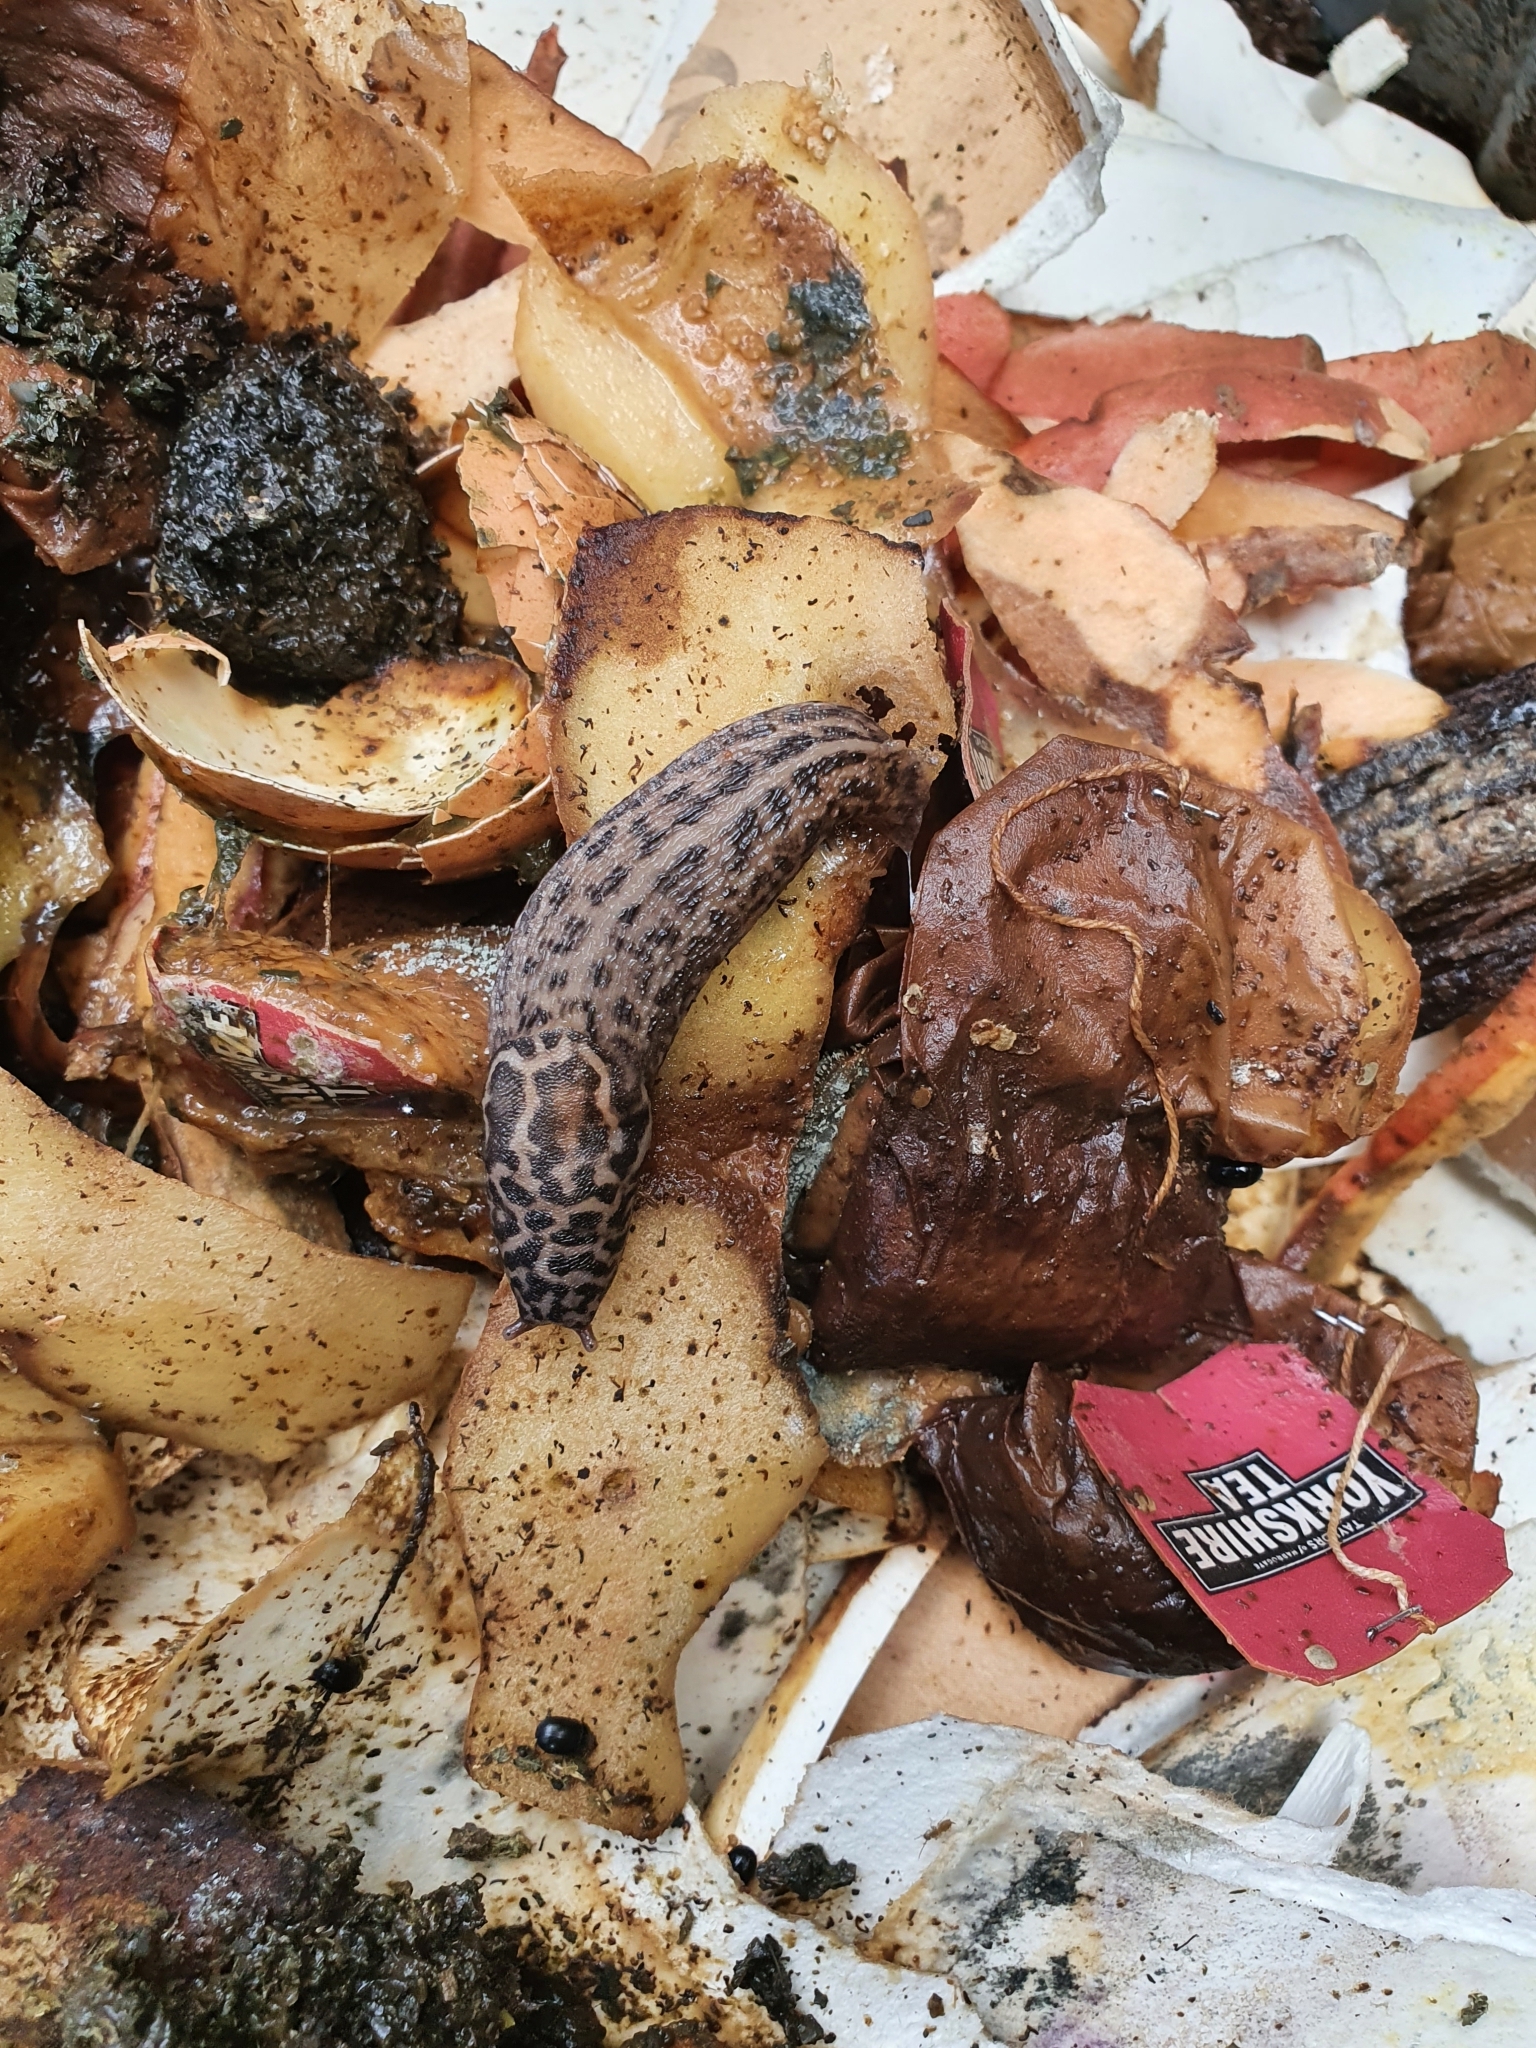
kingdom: Animalia
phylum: Mollusca
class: Gastropoda
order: Stylommatophora
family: Limacidae
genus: Limax
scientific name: Limax maximus
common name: Great grey slug
